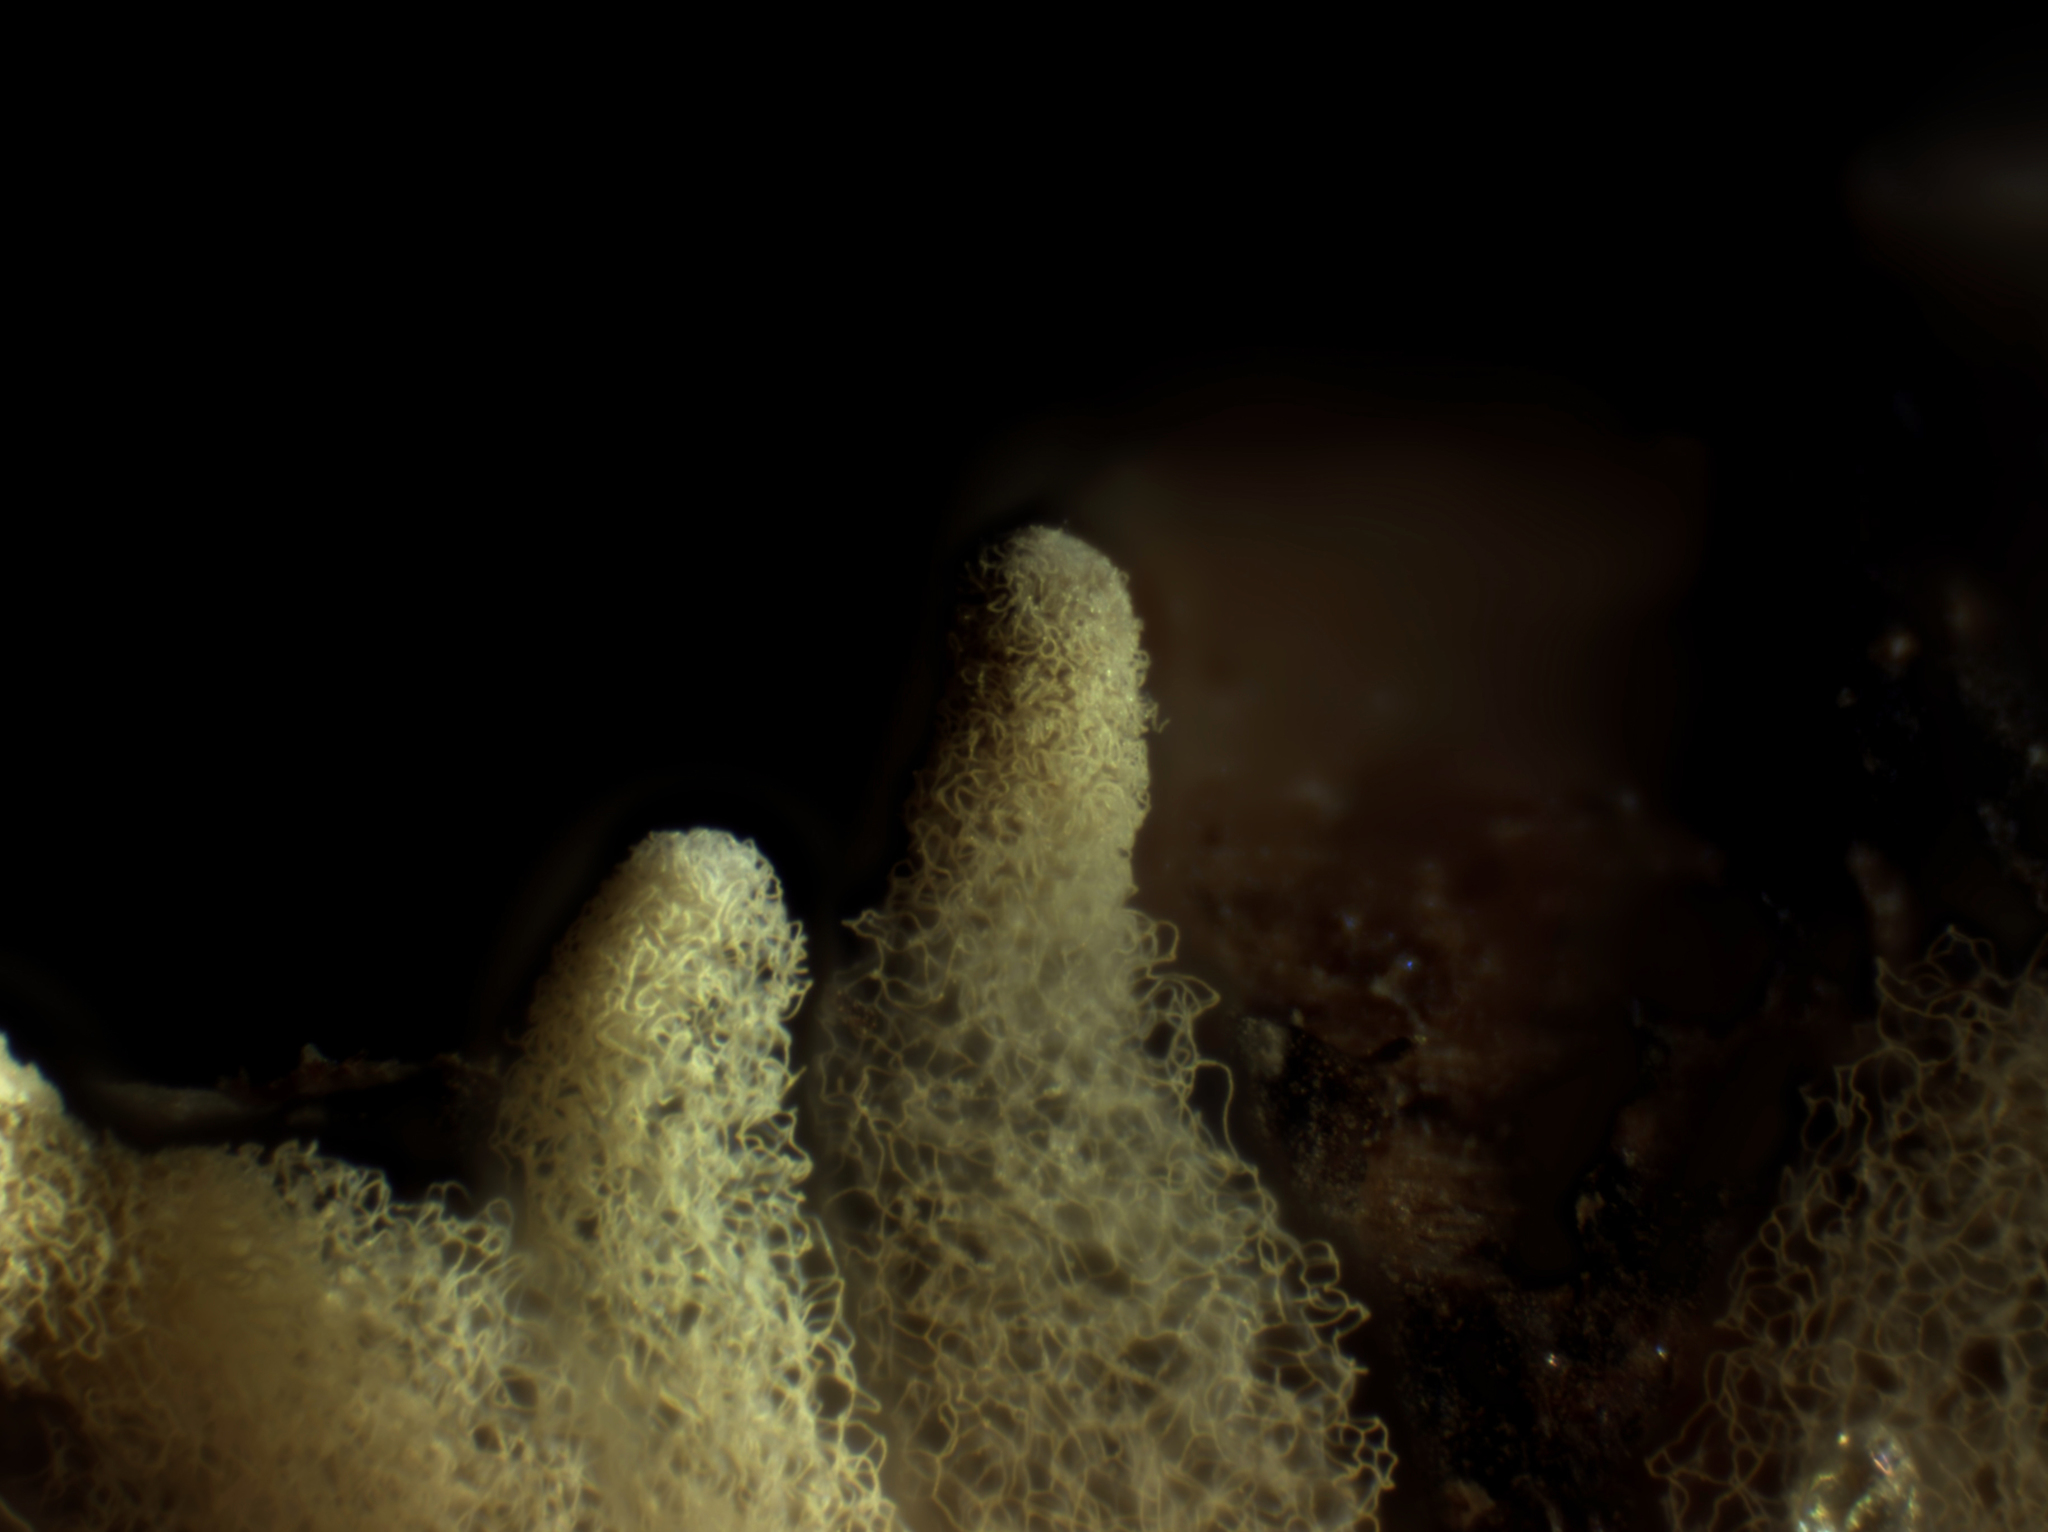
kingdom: Protozoa
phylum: Mycetozoa
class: Myxomycetes
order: Trichiales
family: Arcyriaceae
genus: Arcyria
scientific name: Arcyria obvelata
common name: Yellow carnival candy slime
